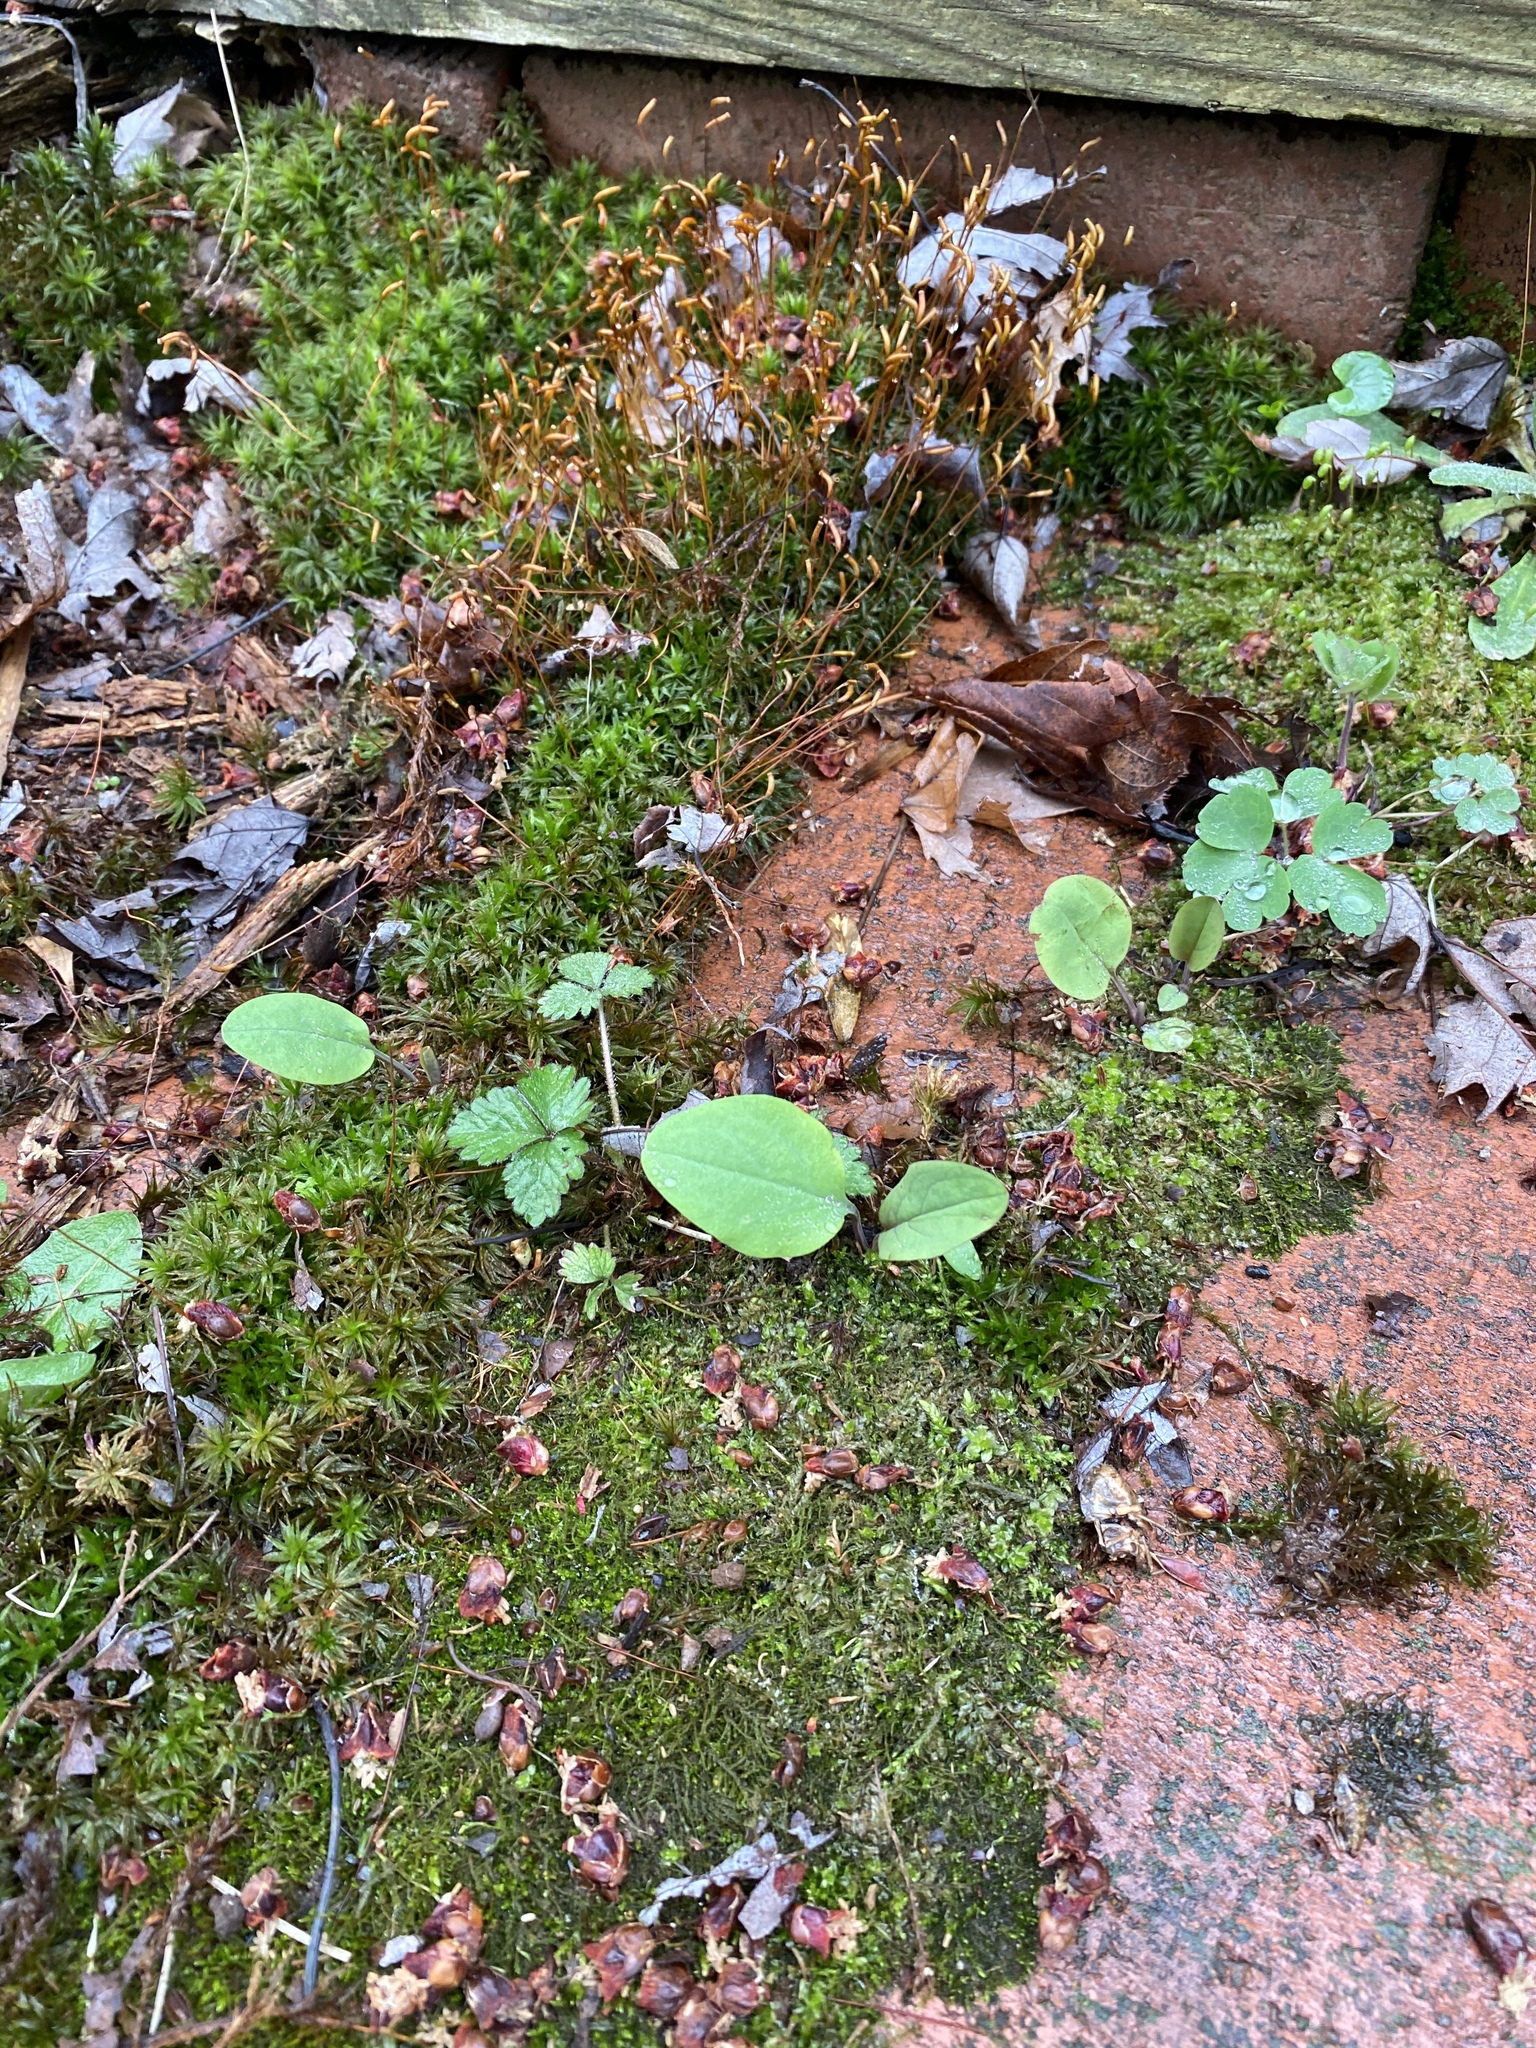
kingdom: Plantae
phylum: Tracheophyta
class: Magnoliopsida
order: Boraginales
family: Boraginaceae
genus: Mertensia
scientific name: Mertensia virginica
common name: Virginia bluebells
